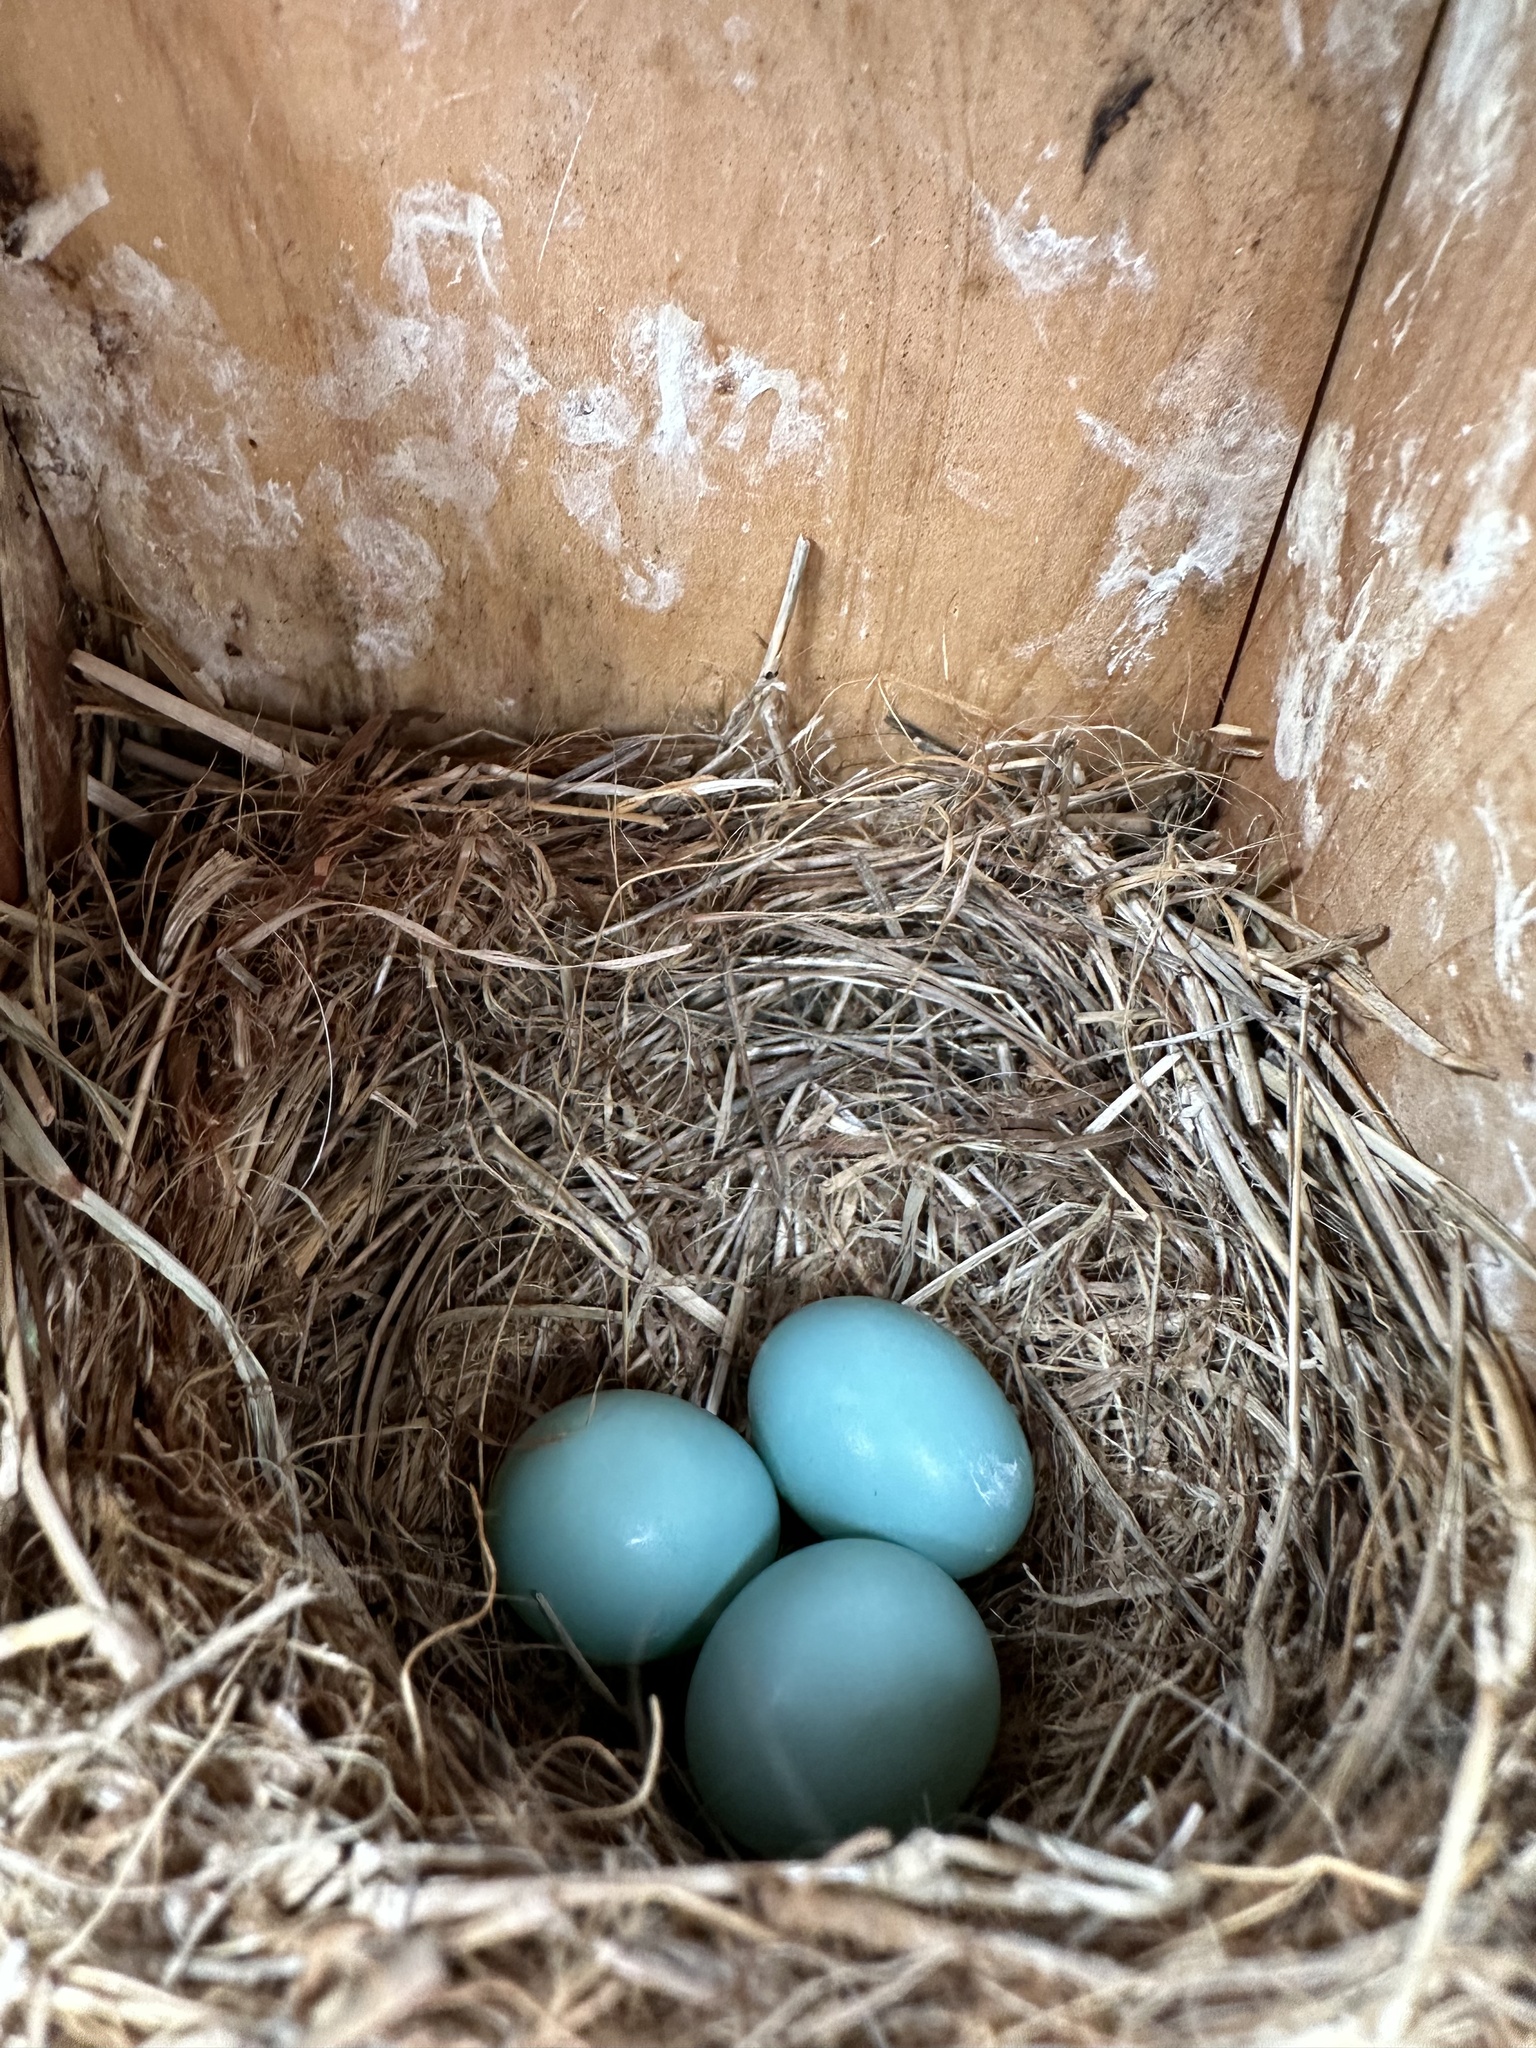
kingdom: Animalia
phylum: Chordata
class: Aves
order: Passeriformes
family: Turdidae
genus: Sialia
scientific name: Sialia sialis
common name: Eastern bluebird
